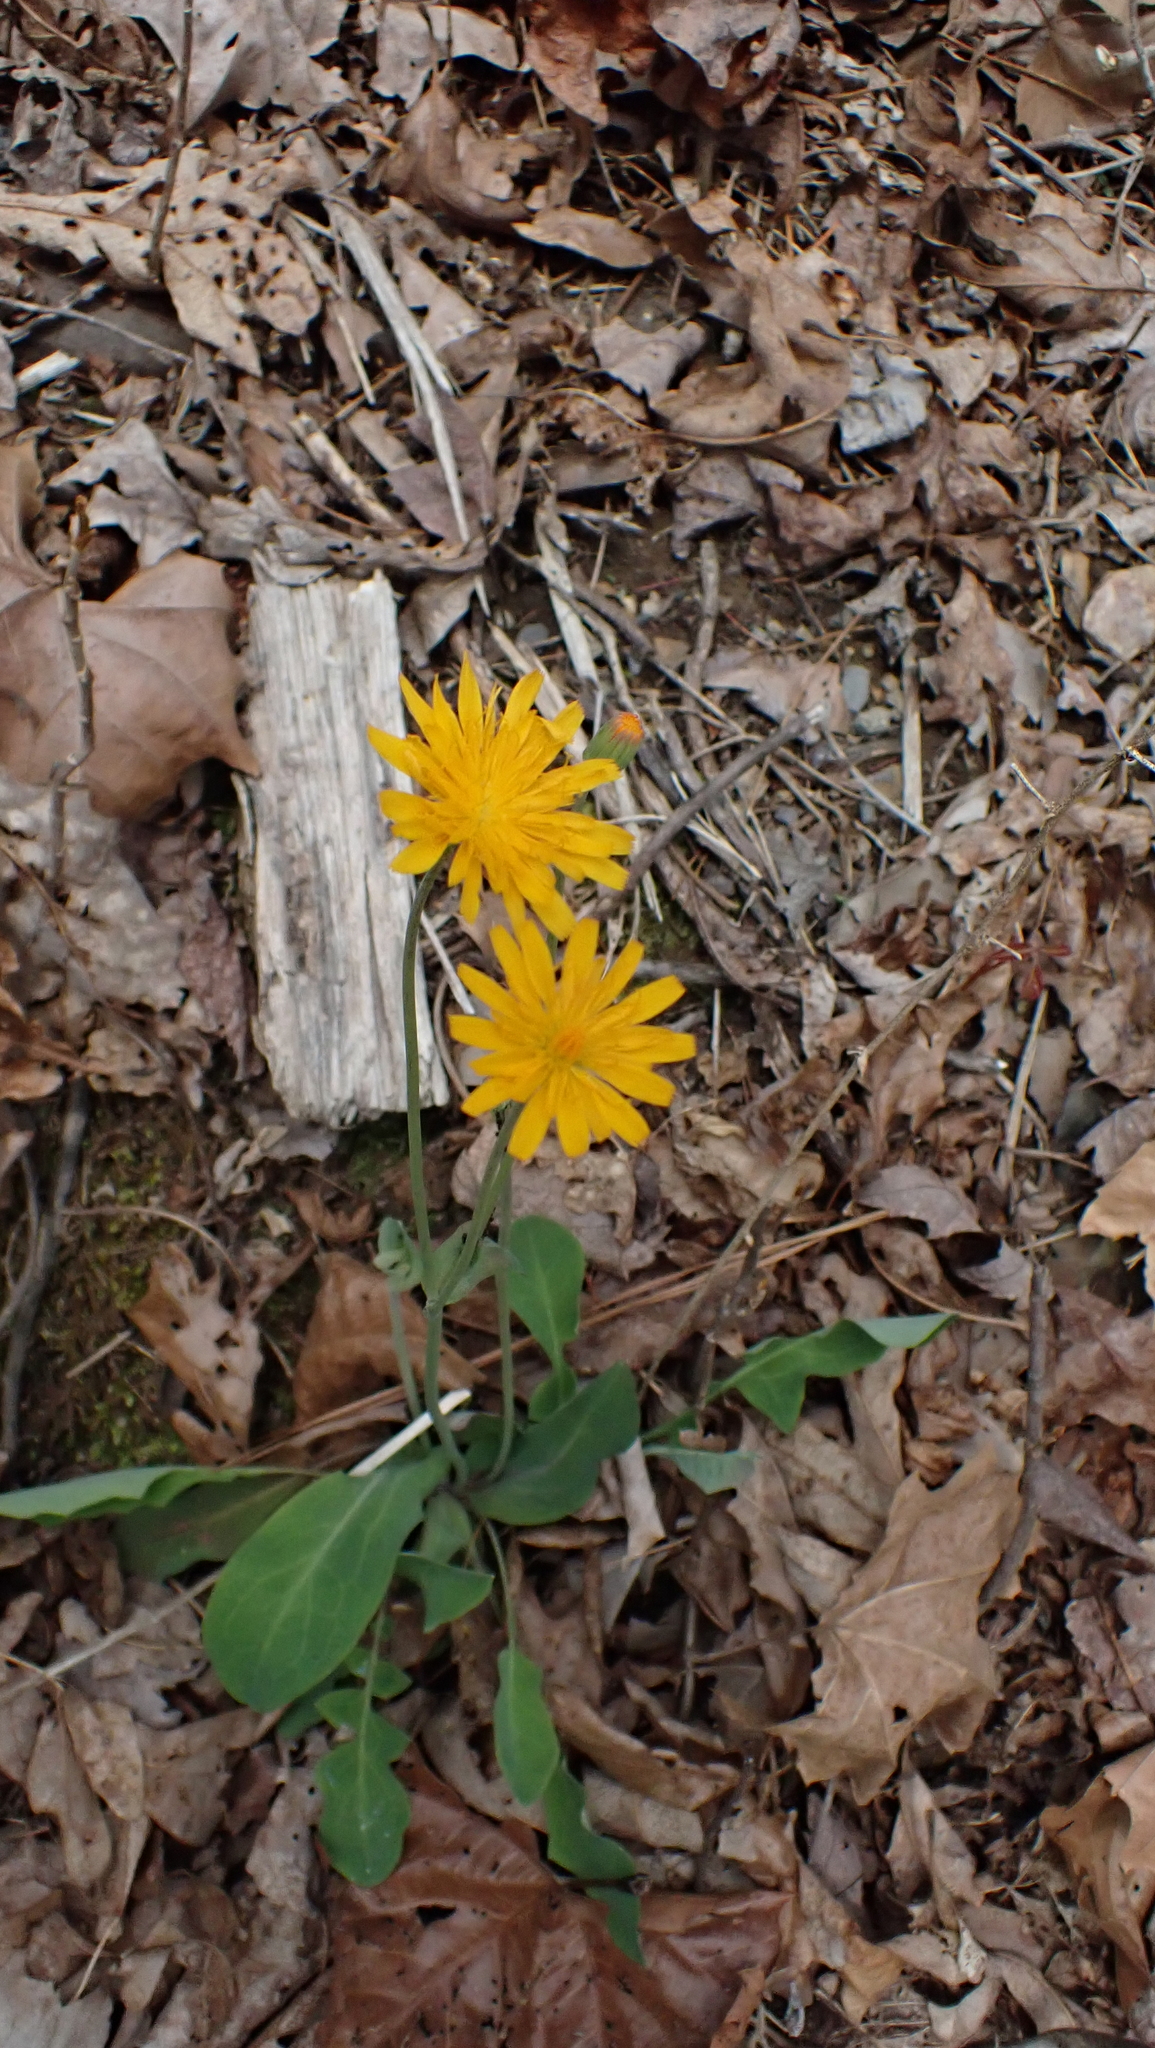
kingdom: Plantae
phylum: Tracheophyta
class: Magnoliopsida
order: Asterales
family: Asteraceae
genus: Krigia
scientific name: Krigia biflora
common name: Orange dwarf-dandelion
